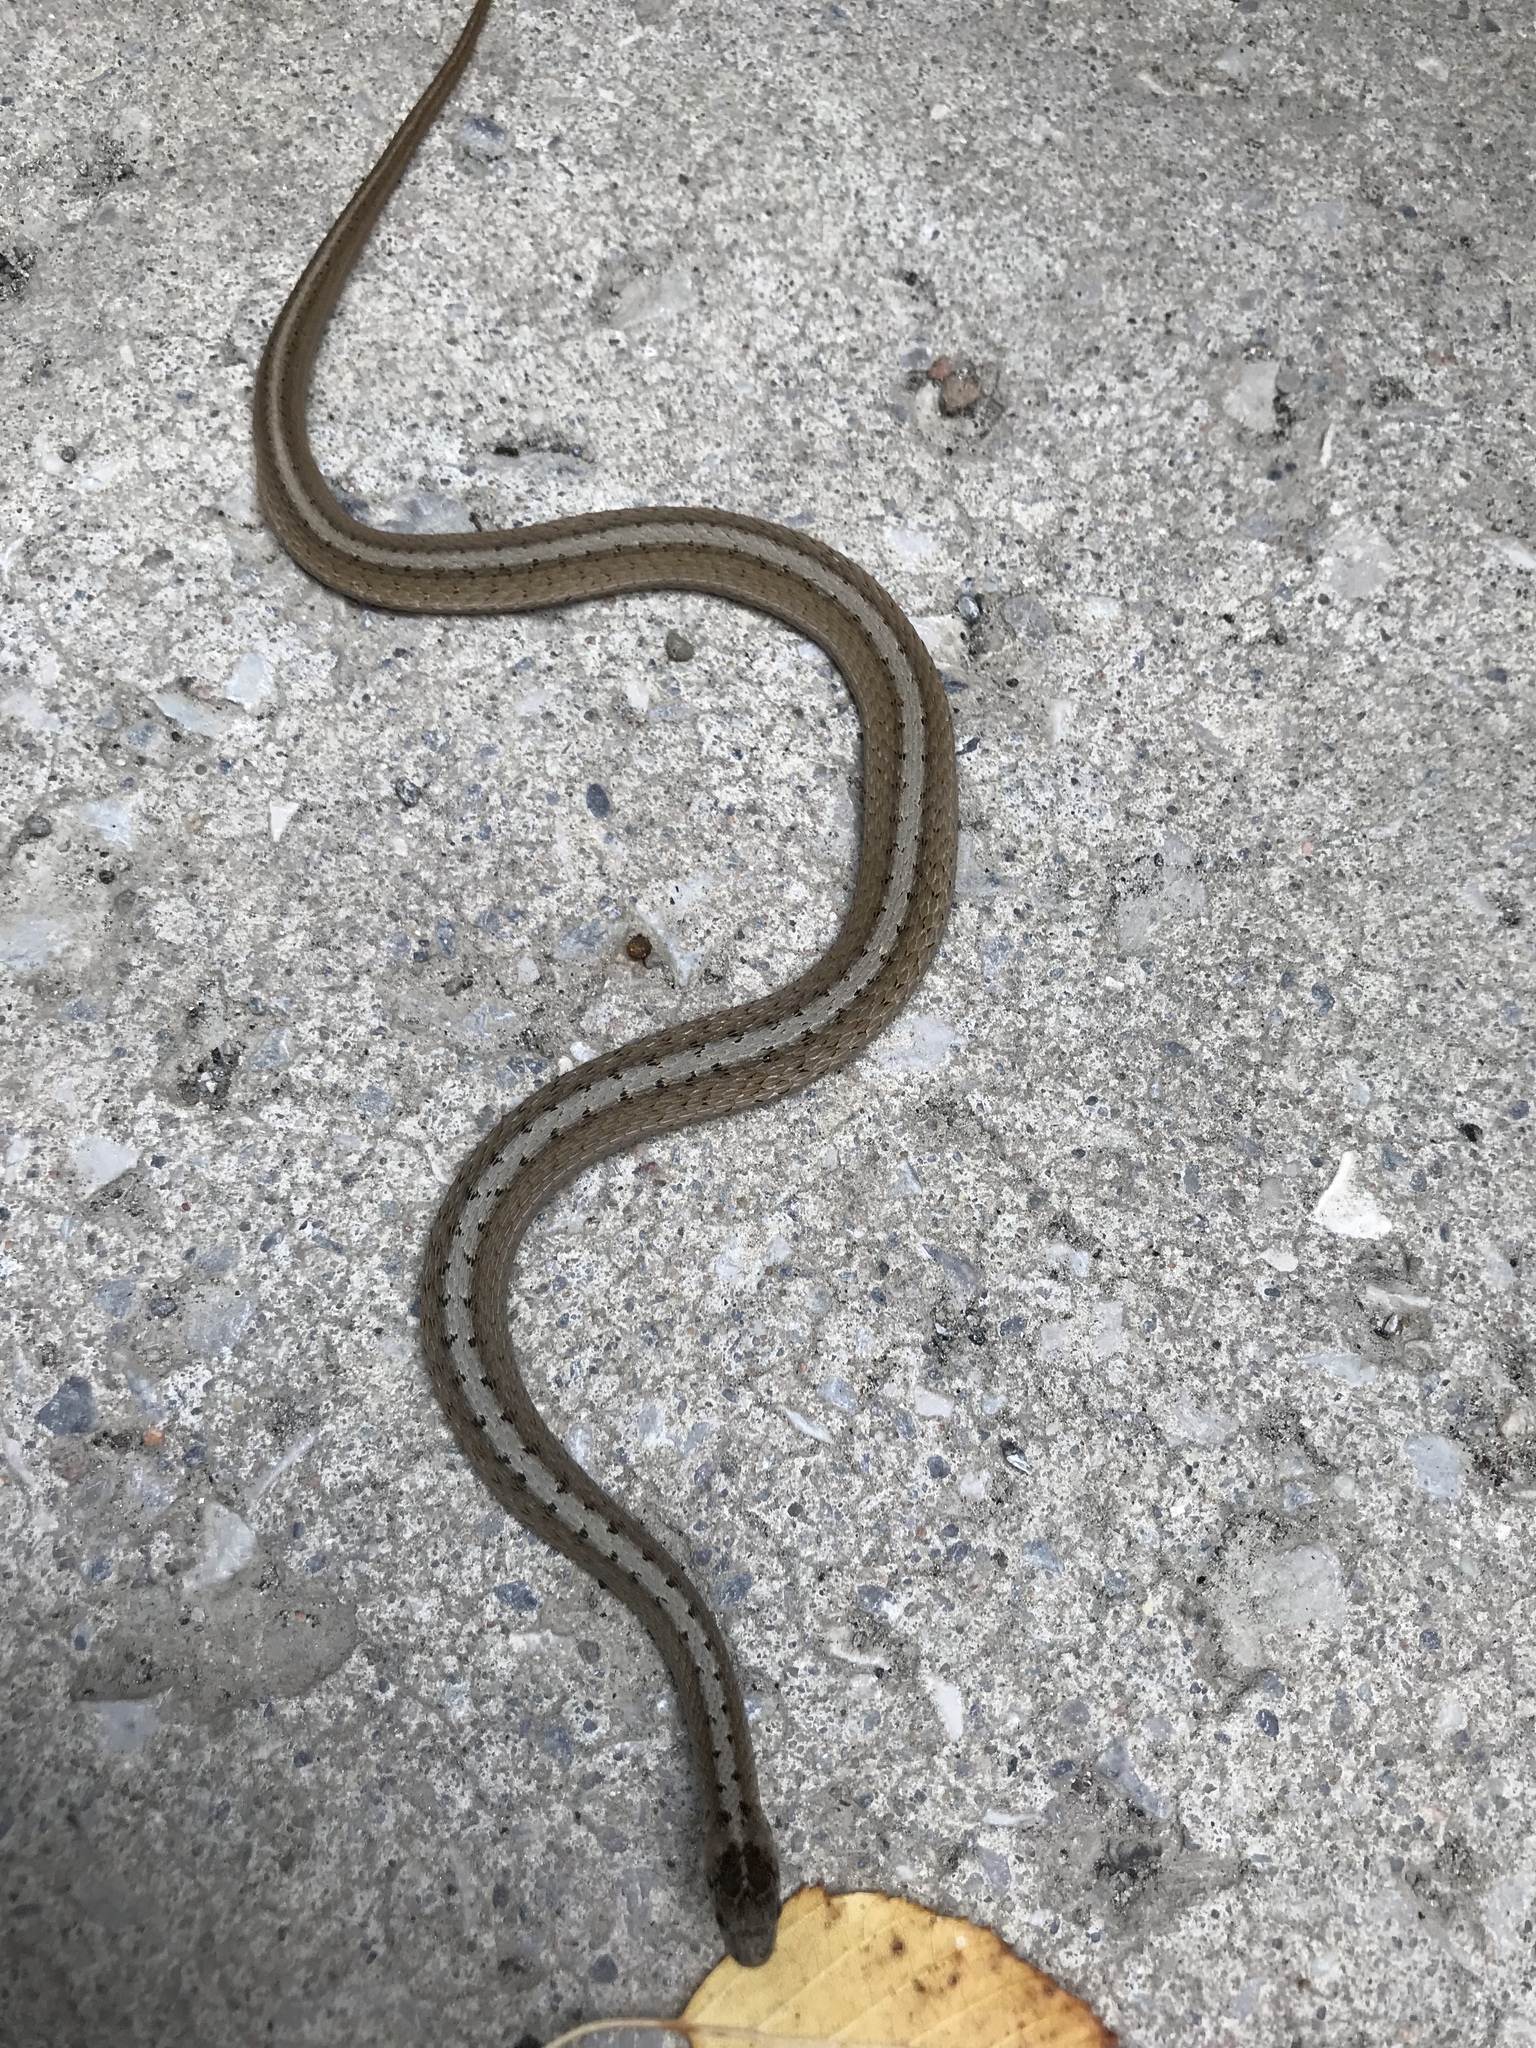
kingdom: Animalia
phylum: Chordata
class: Squamata
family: Colubridae
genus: Storeria
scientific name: Storeria dekayi
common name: (dekay’s) brown snake
